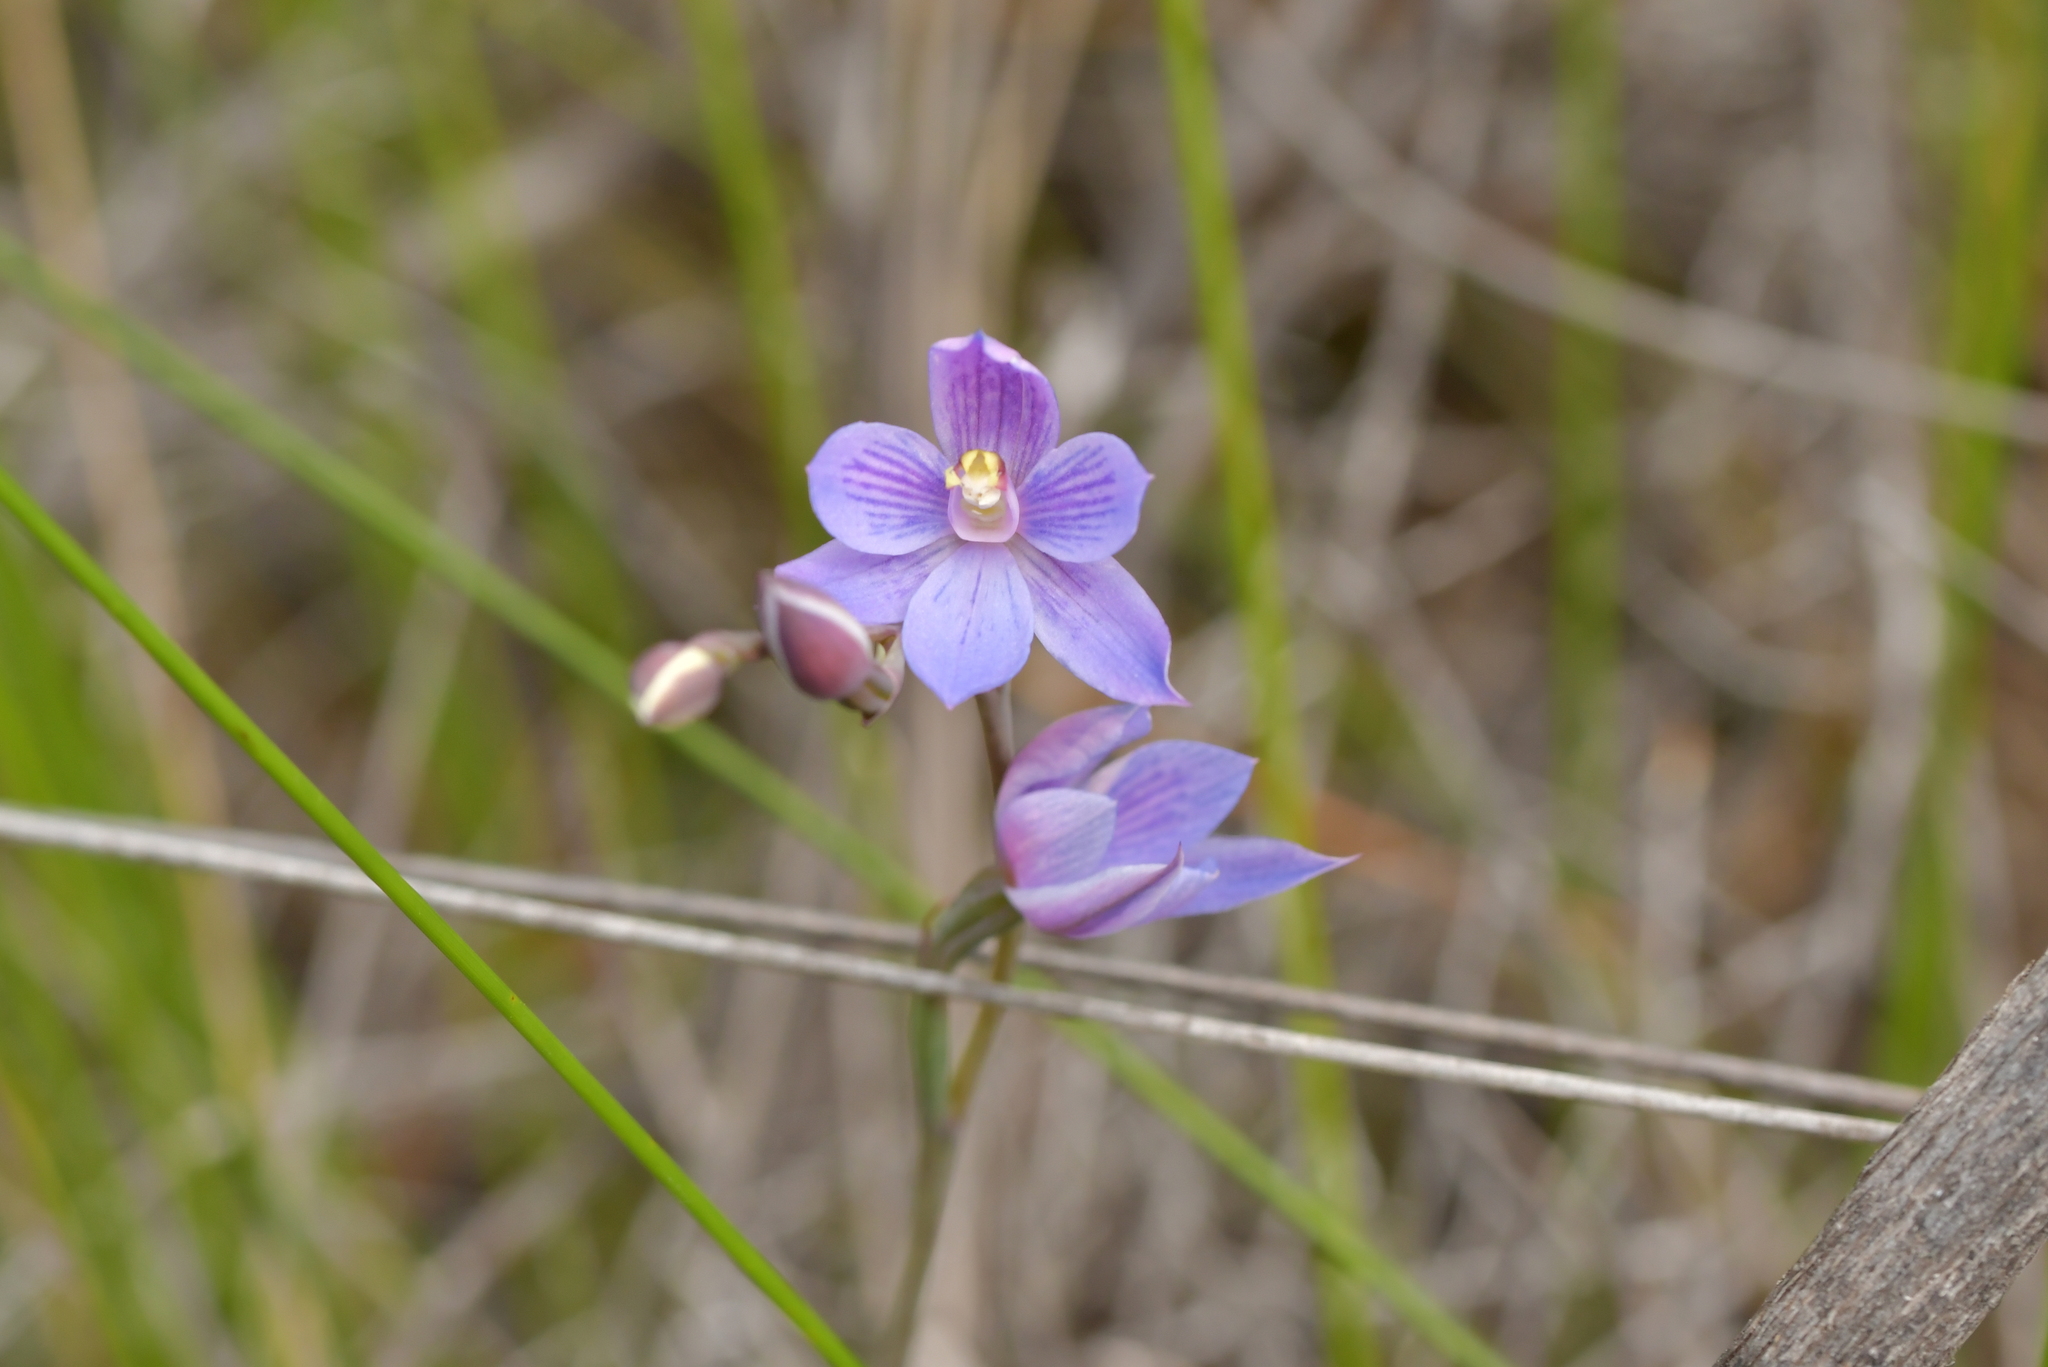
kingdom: Plantae
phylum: Tracheophyta
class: Liliopsida
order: Asparagales
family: Orchidaceae
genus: Thelymitra
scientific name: Thelymitra pulchella
